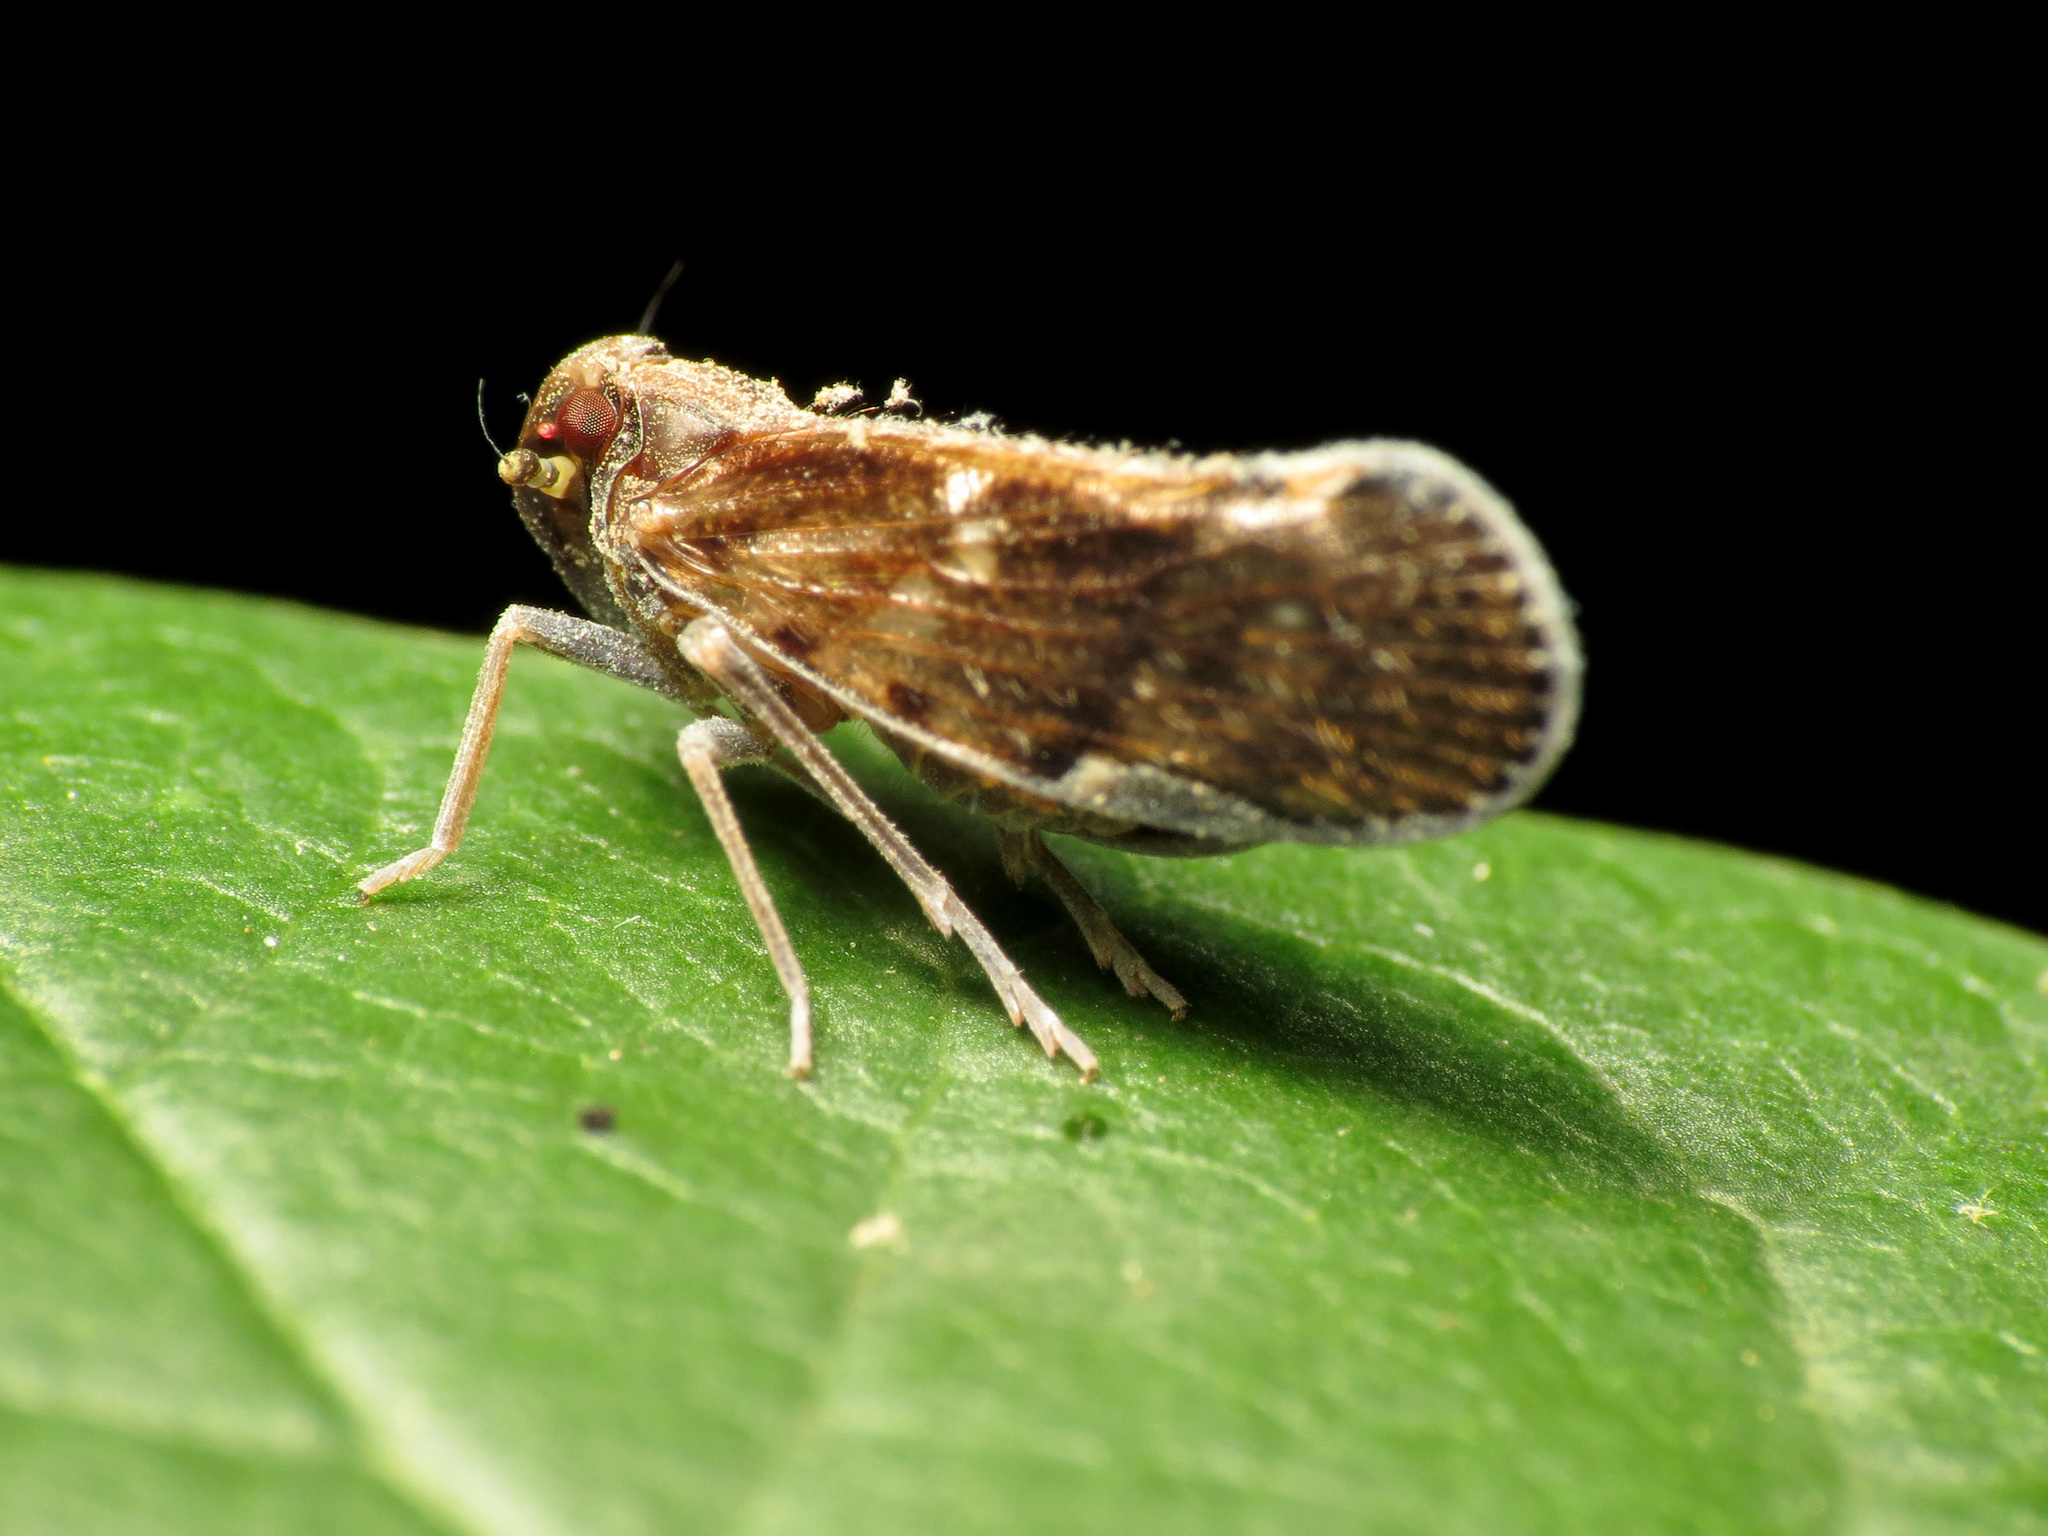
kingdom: Animalia
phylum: Arthropoda
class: Insecta
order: Hemiptera
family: Cixiidae
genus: Pintalia
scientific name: Pintalia vibex
